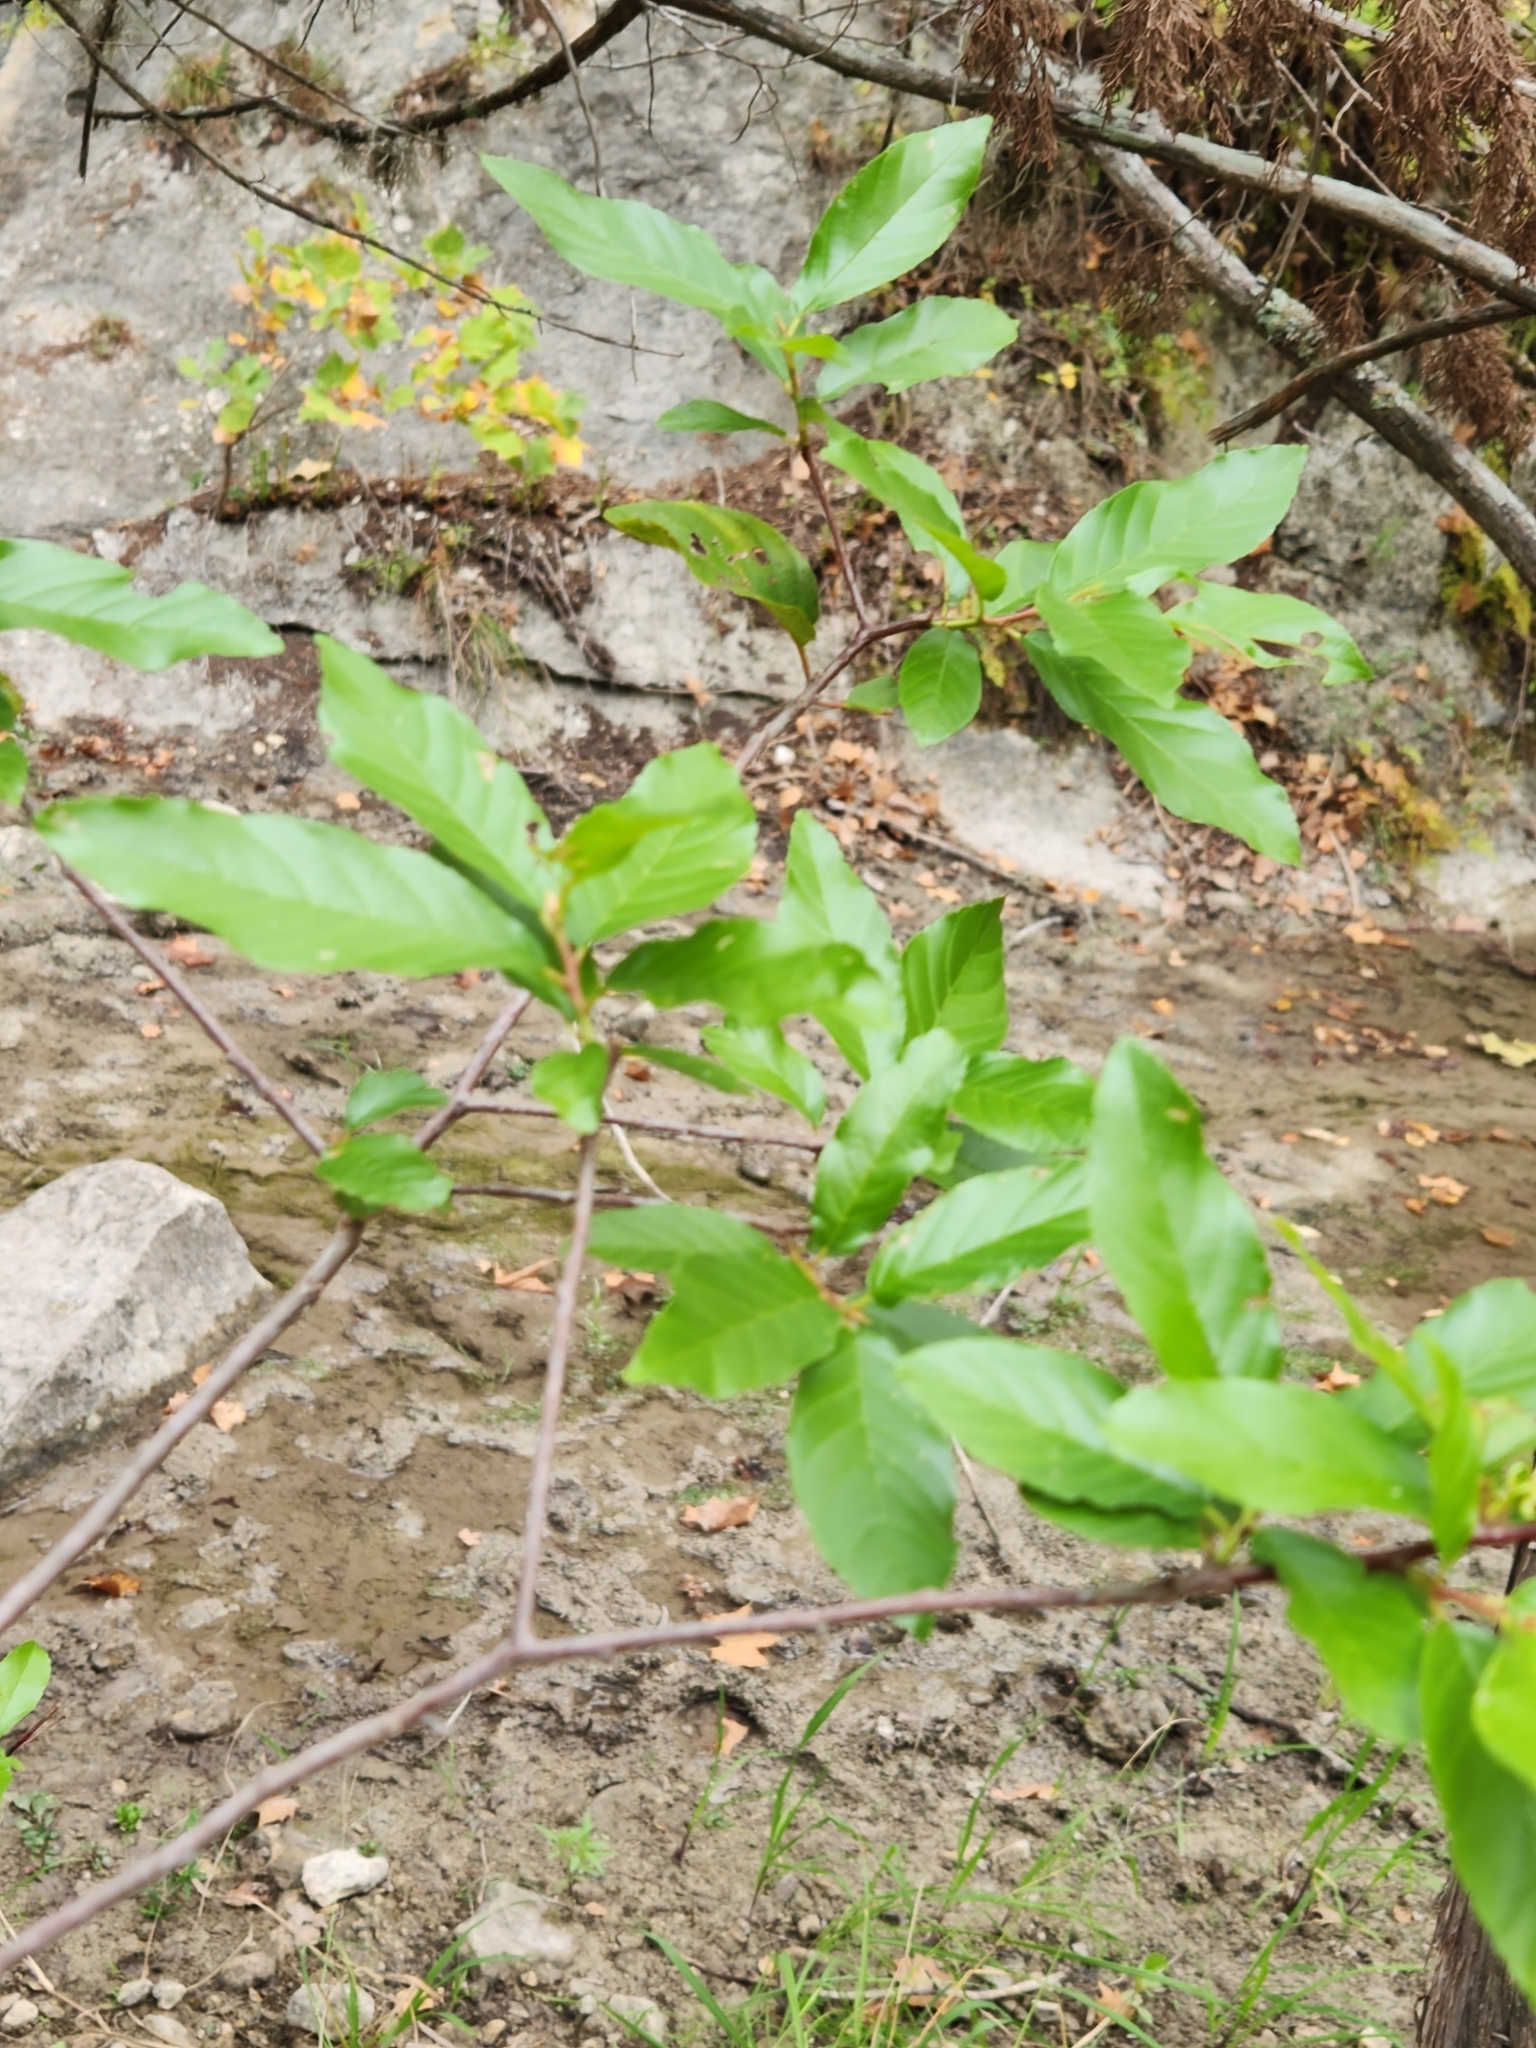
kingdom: Plantae
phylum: Tracheophyta
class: Magnoliopsida
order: Rosales
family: Rhamnaceae
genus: Frangula
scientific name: Frangula caroliniana
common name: Carolina buckthorn
